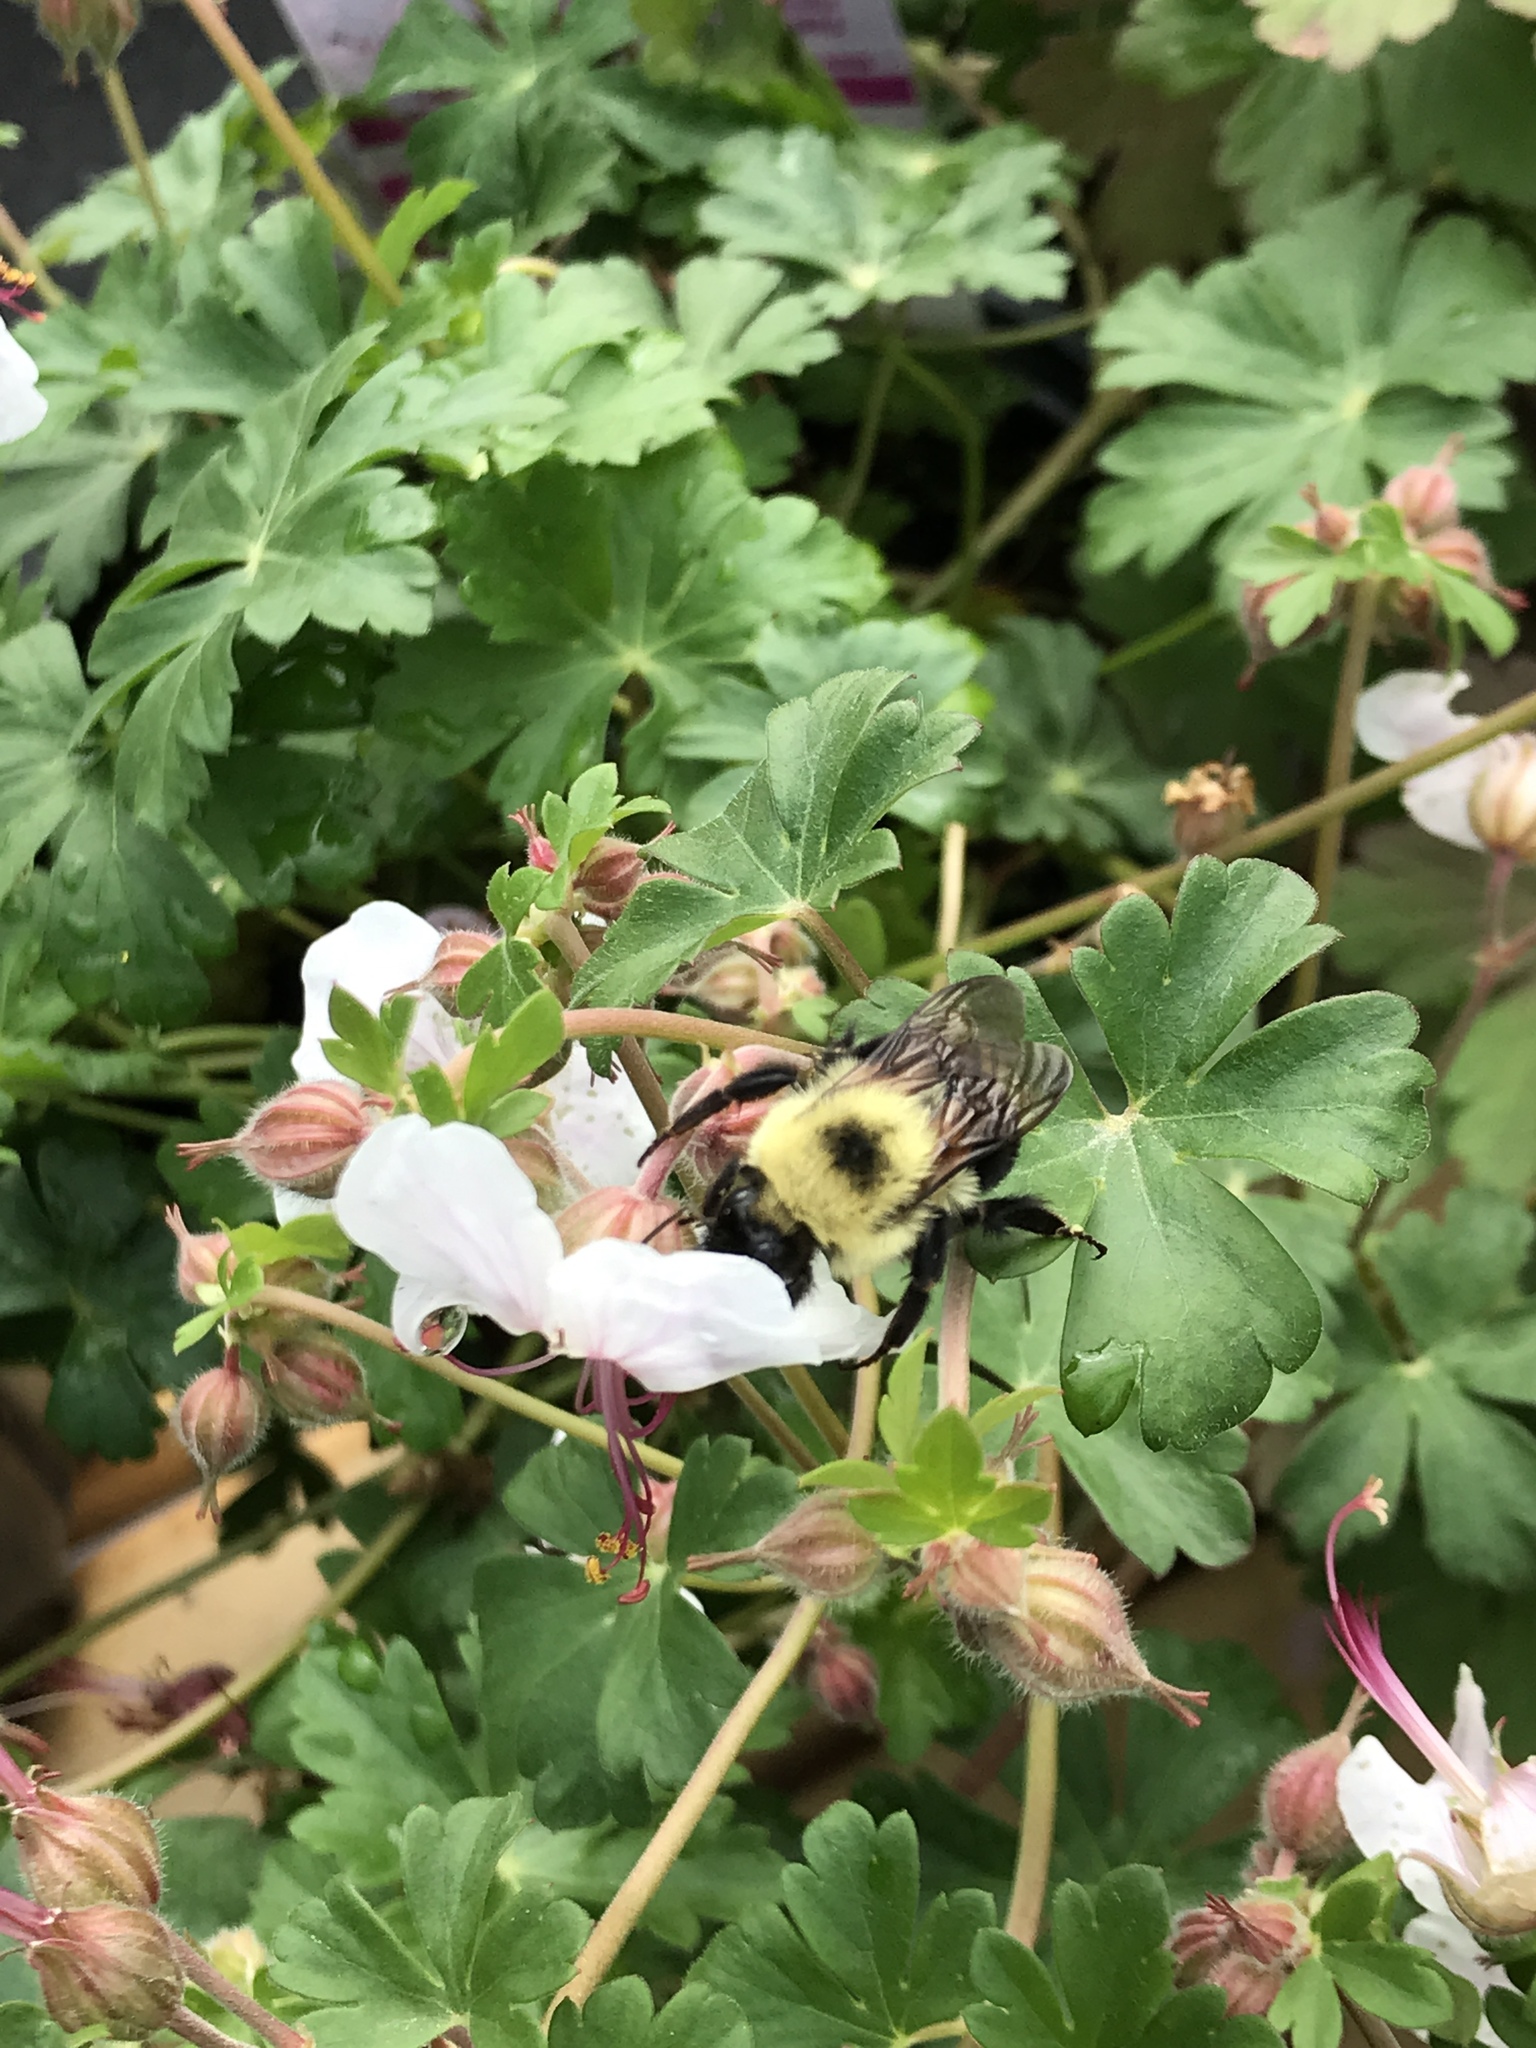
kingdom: Animalia
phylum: Arthropoda
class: Insecta
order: Hymenoptera
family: Apidae
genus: Bombus
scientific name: Bombus bimaculatus
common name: Two-spotted bumble bee
